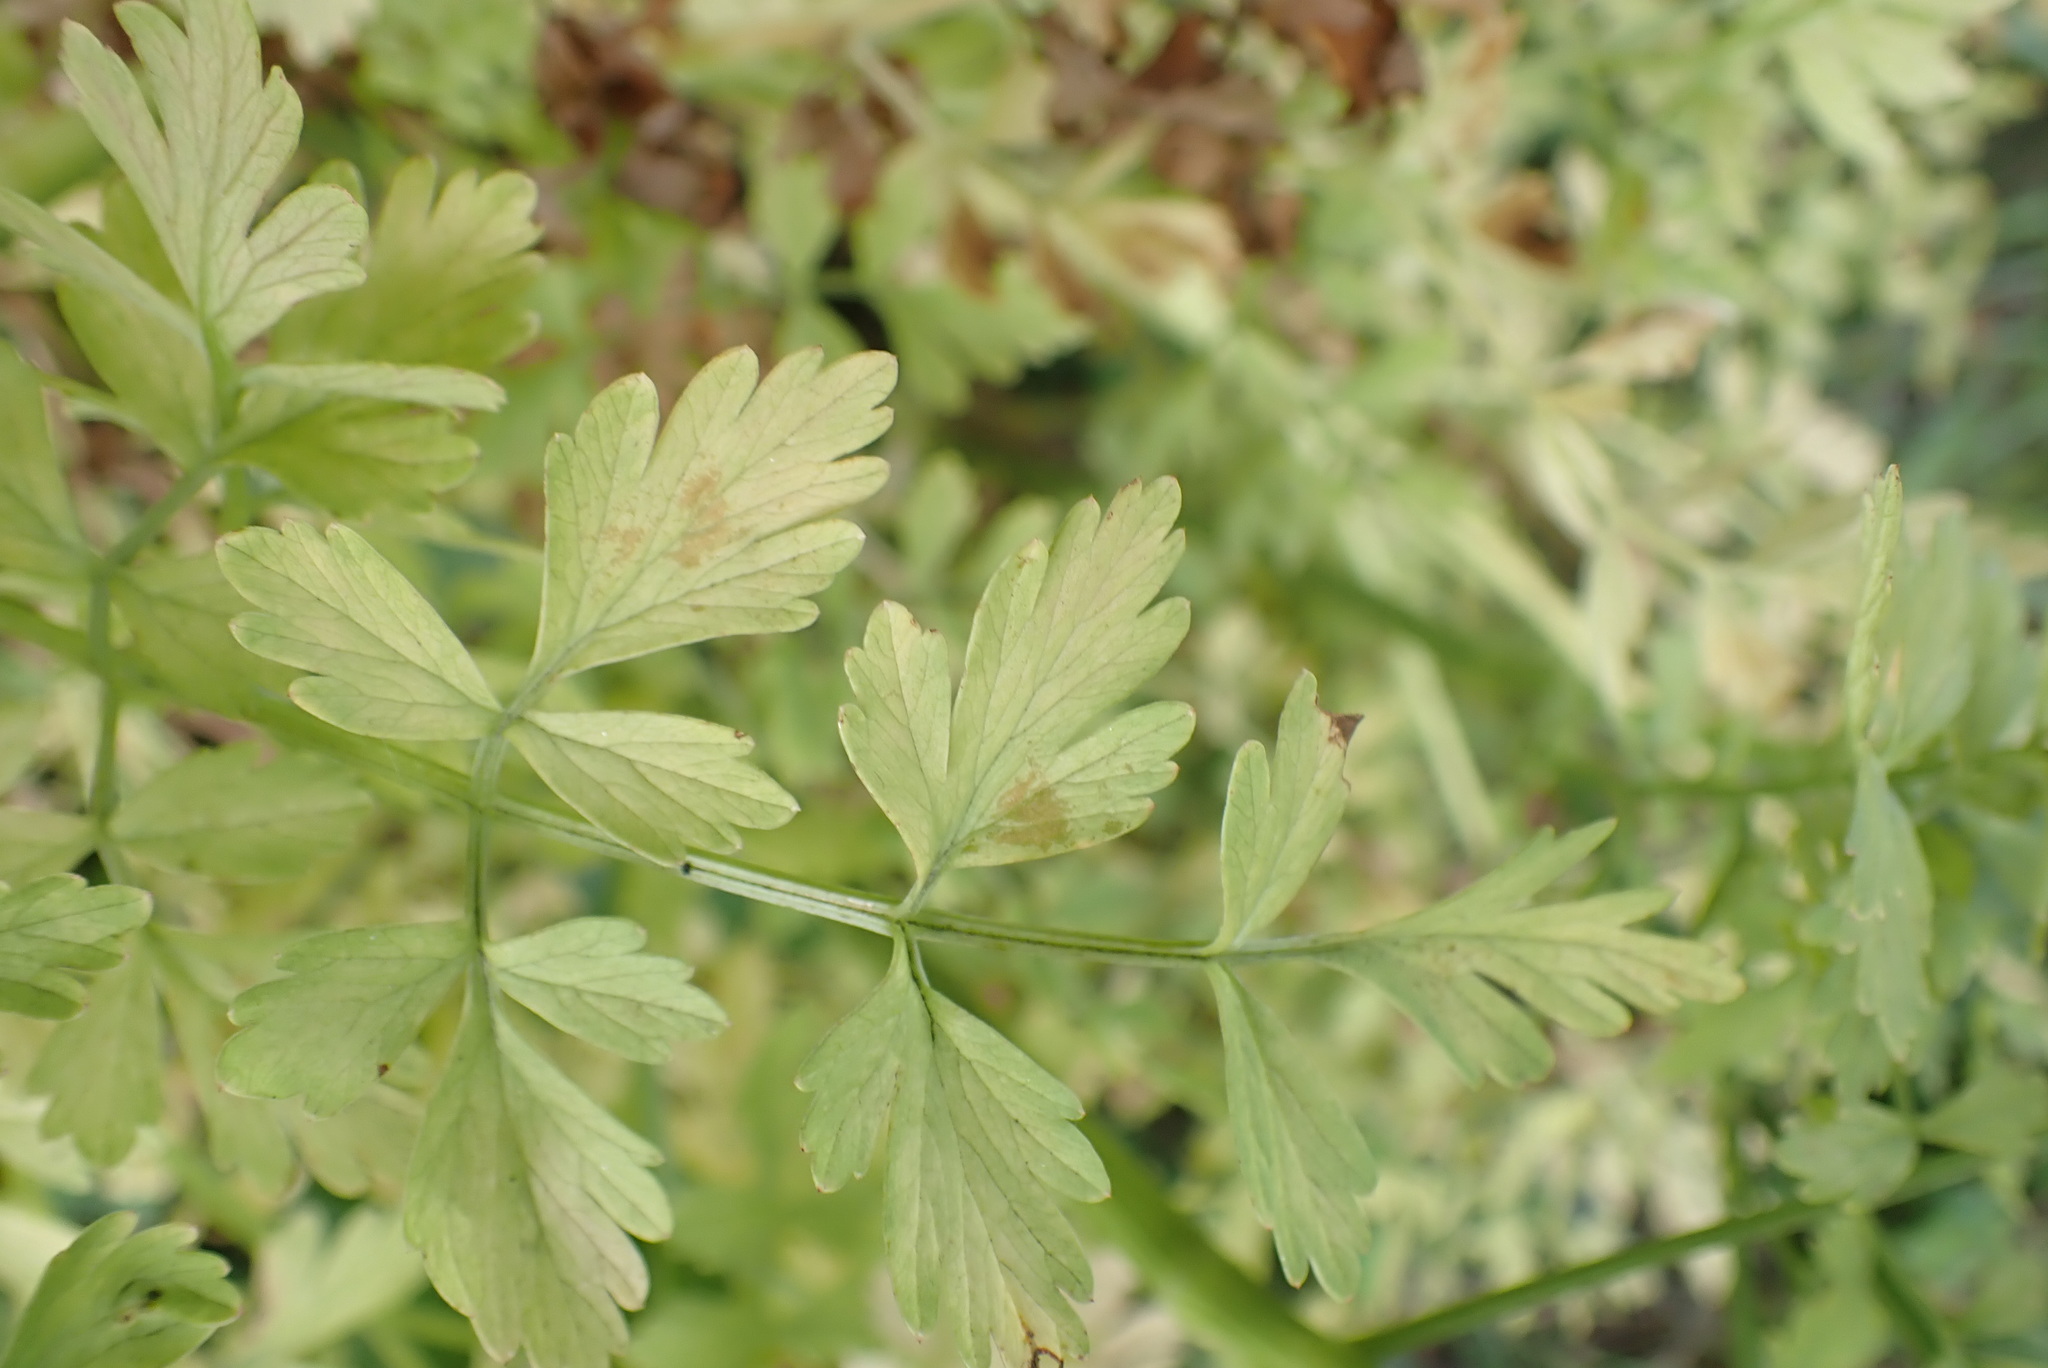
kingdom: Plantae
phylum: Tracheophyta
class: Magnoliopsida
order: Apiales
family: Apiaceae
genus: Oenanthe
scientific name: Oenanthe crocata
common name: Hemlock water-dropwort
